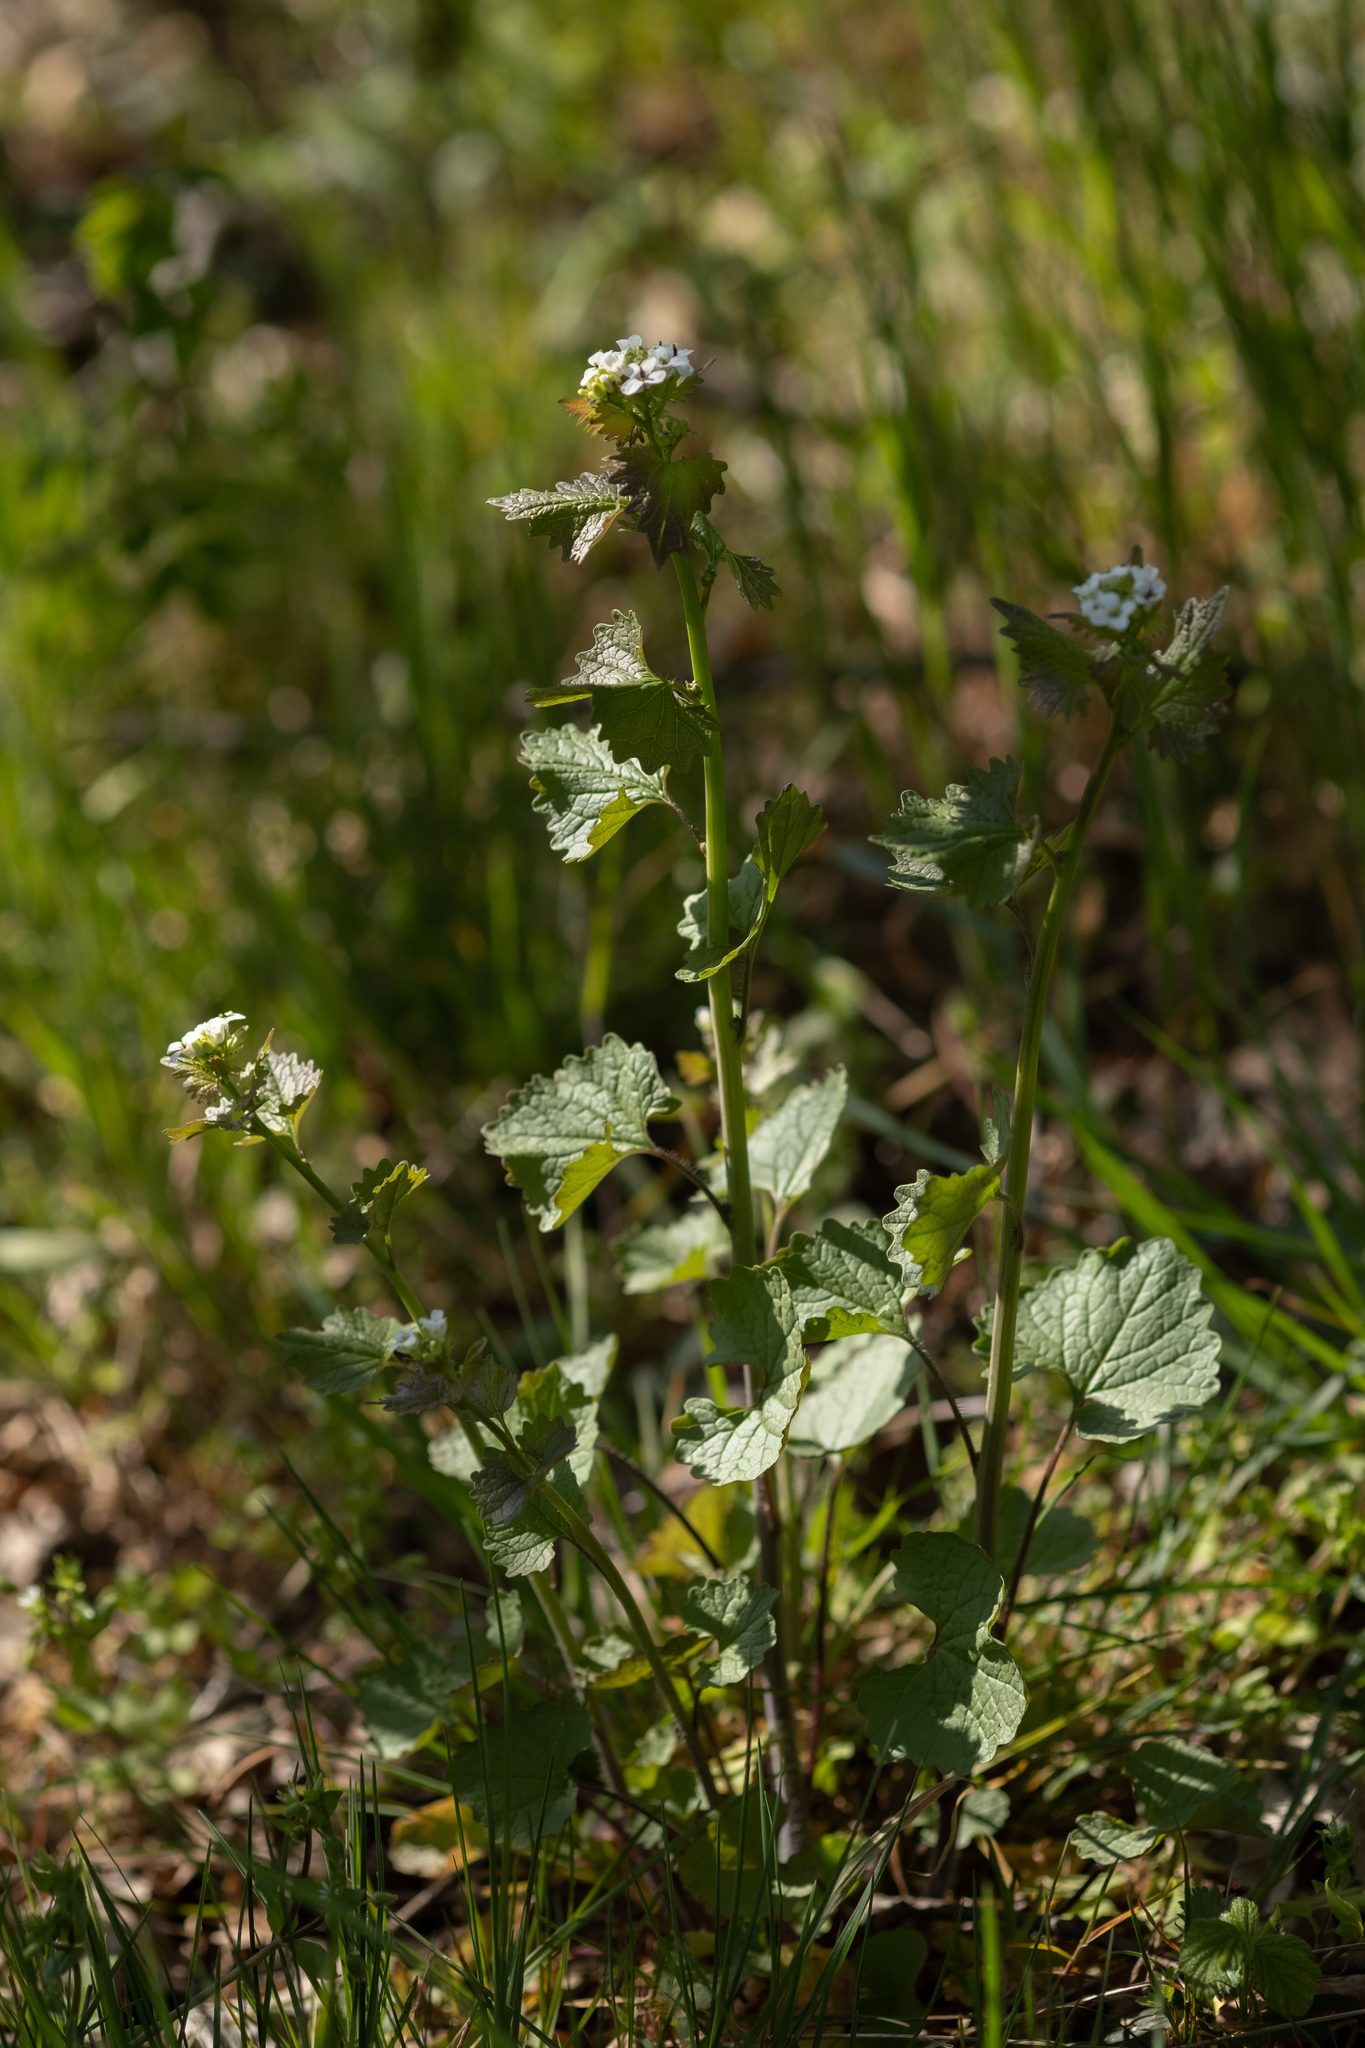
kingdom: Plantae
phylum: Tracheophyta
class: Magnoliopsida
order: Brassicales
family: Brassicaceae
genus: Alliaria
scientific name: Alliaria petiolata
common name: Garlic mustard
